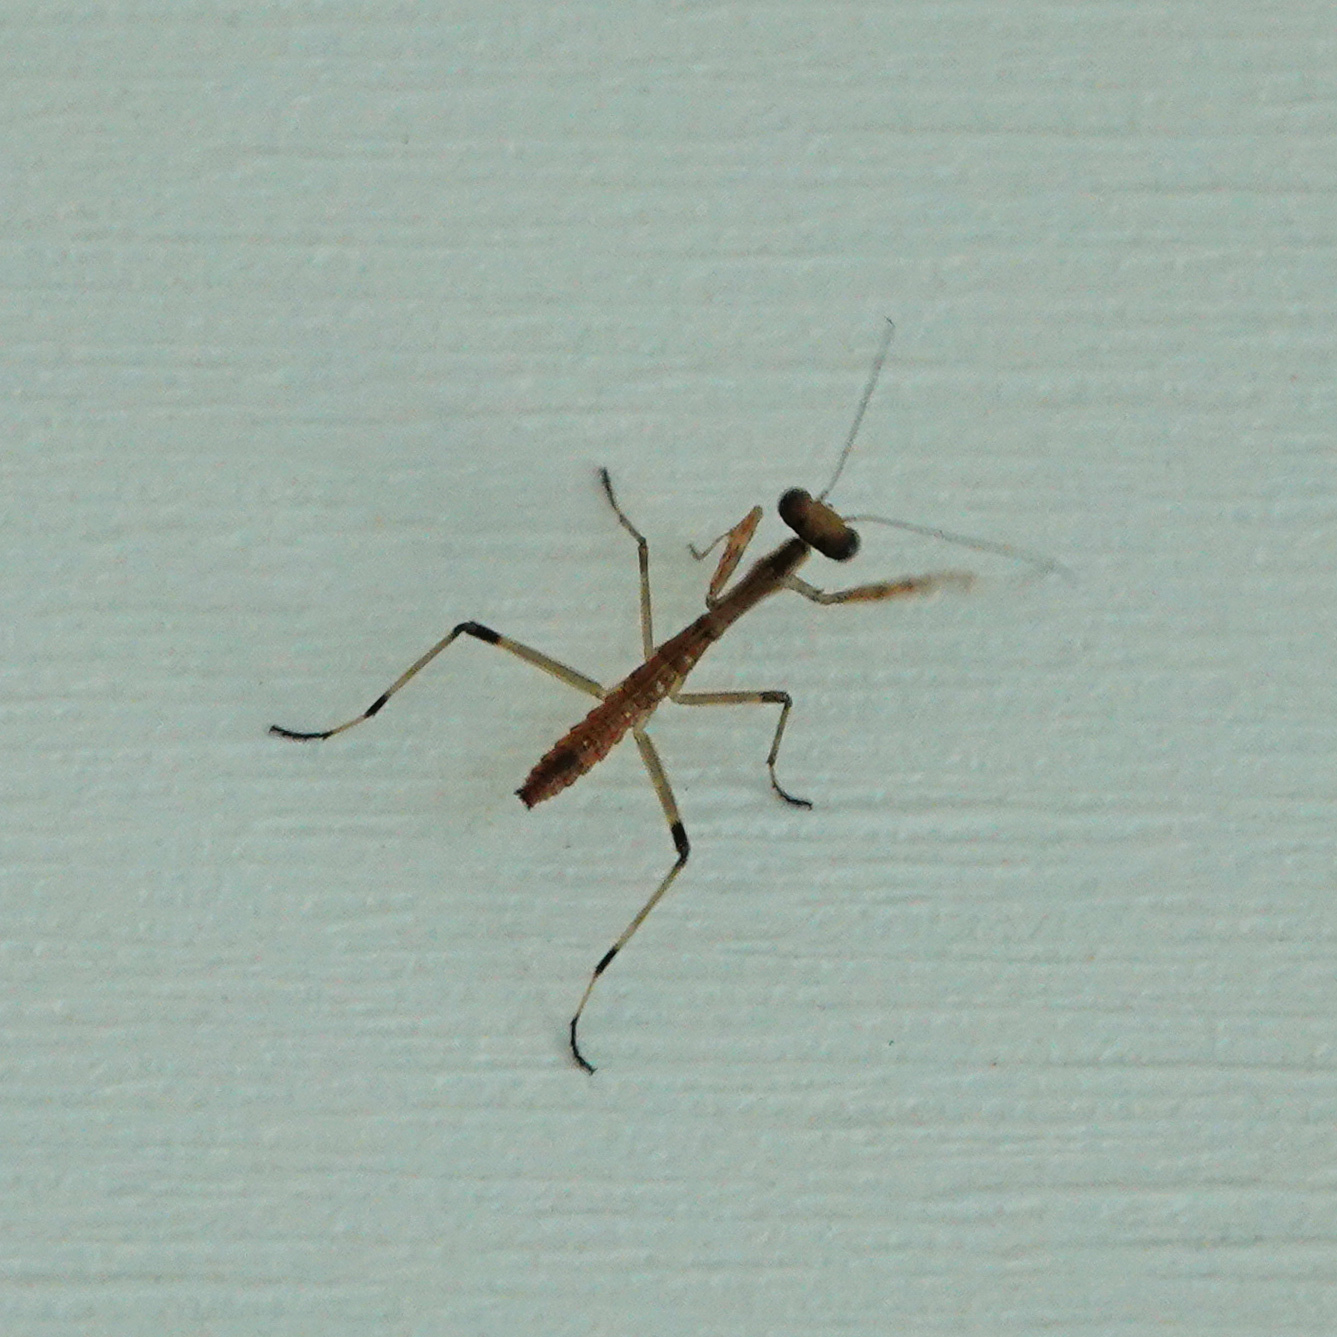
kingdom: Animalia
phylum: Arthropoda
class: Insecta
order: Mantodea
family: Mantidae
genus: Stagmomantis
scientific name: Stagmomantis carolina
